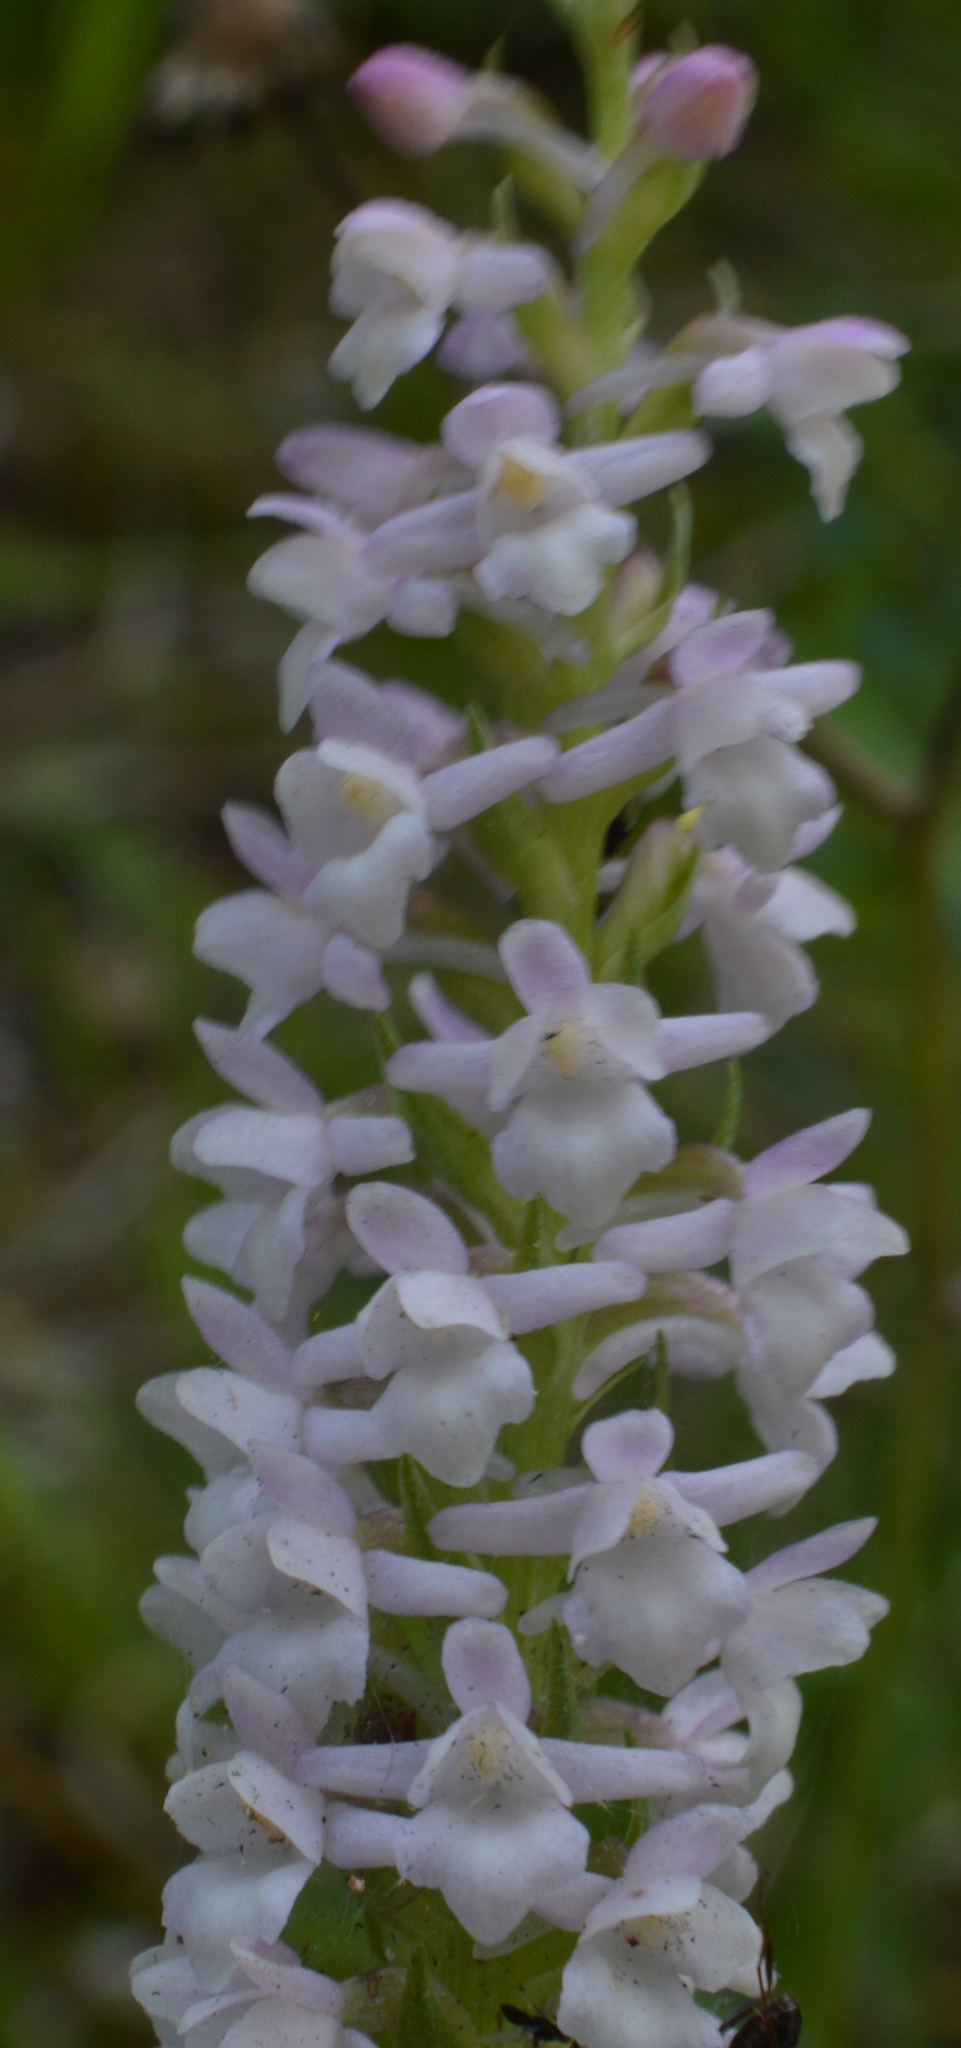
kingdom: Plantae
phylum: Tracheophyta
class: Liliopsida
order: Asparagales
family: Orchidaceae
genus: Gymnadenia
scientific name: Gymnadenia odoratissima
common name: Scented gymnadenia
